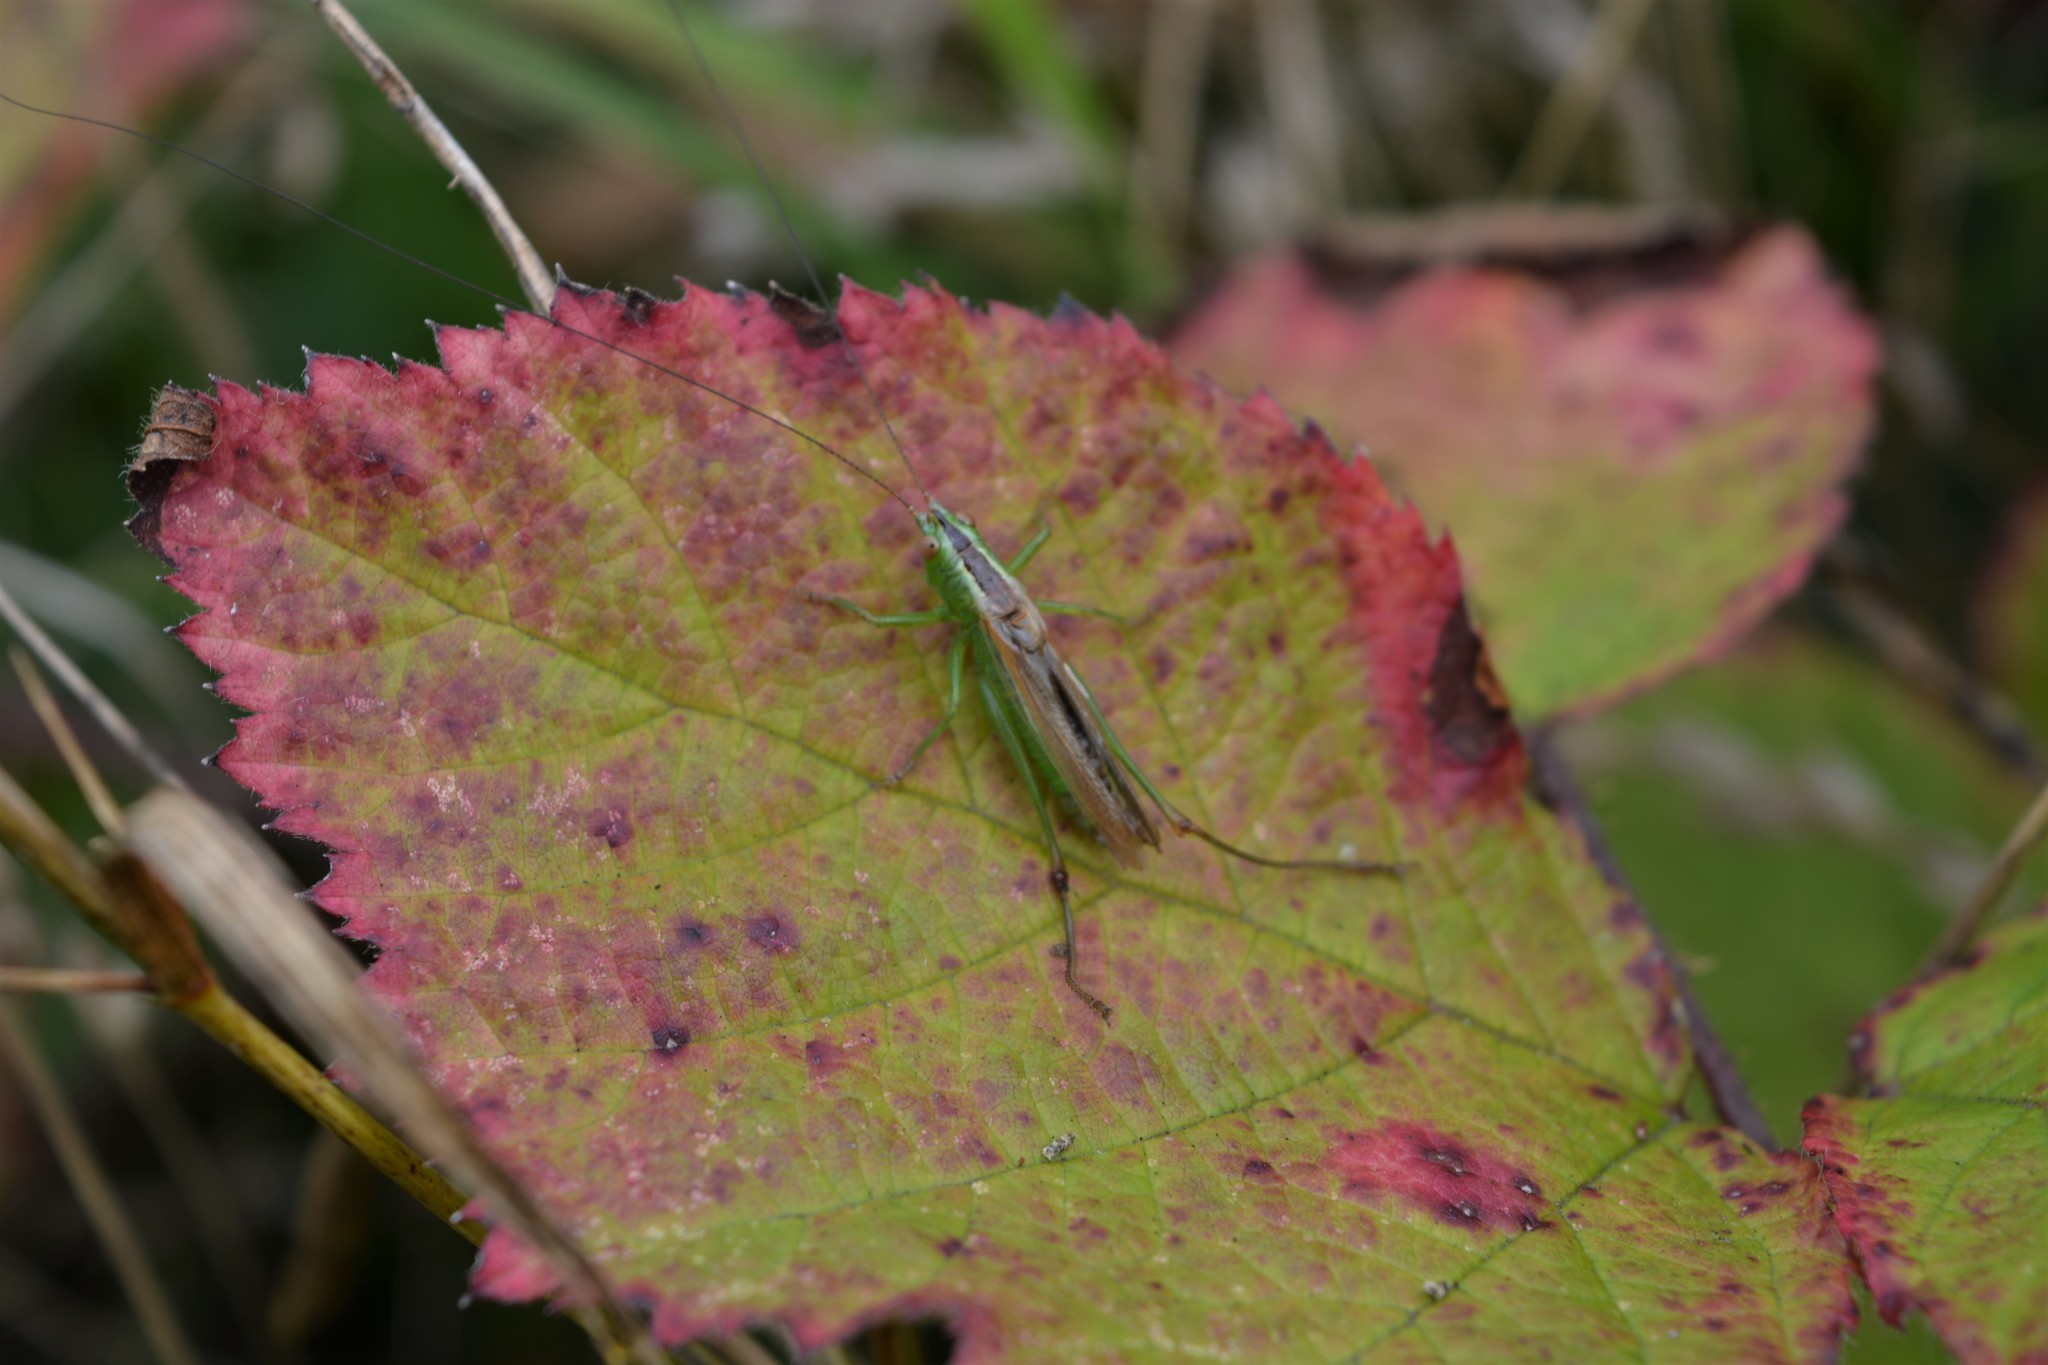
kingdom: Animalia
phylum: Arthropoda
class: Insecta
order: Orthoptera
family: Tettigoniidae
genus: Conocephalus
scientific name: Conocephalus fuscus
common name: Long-winged conehead
